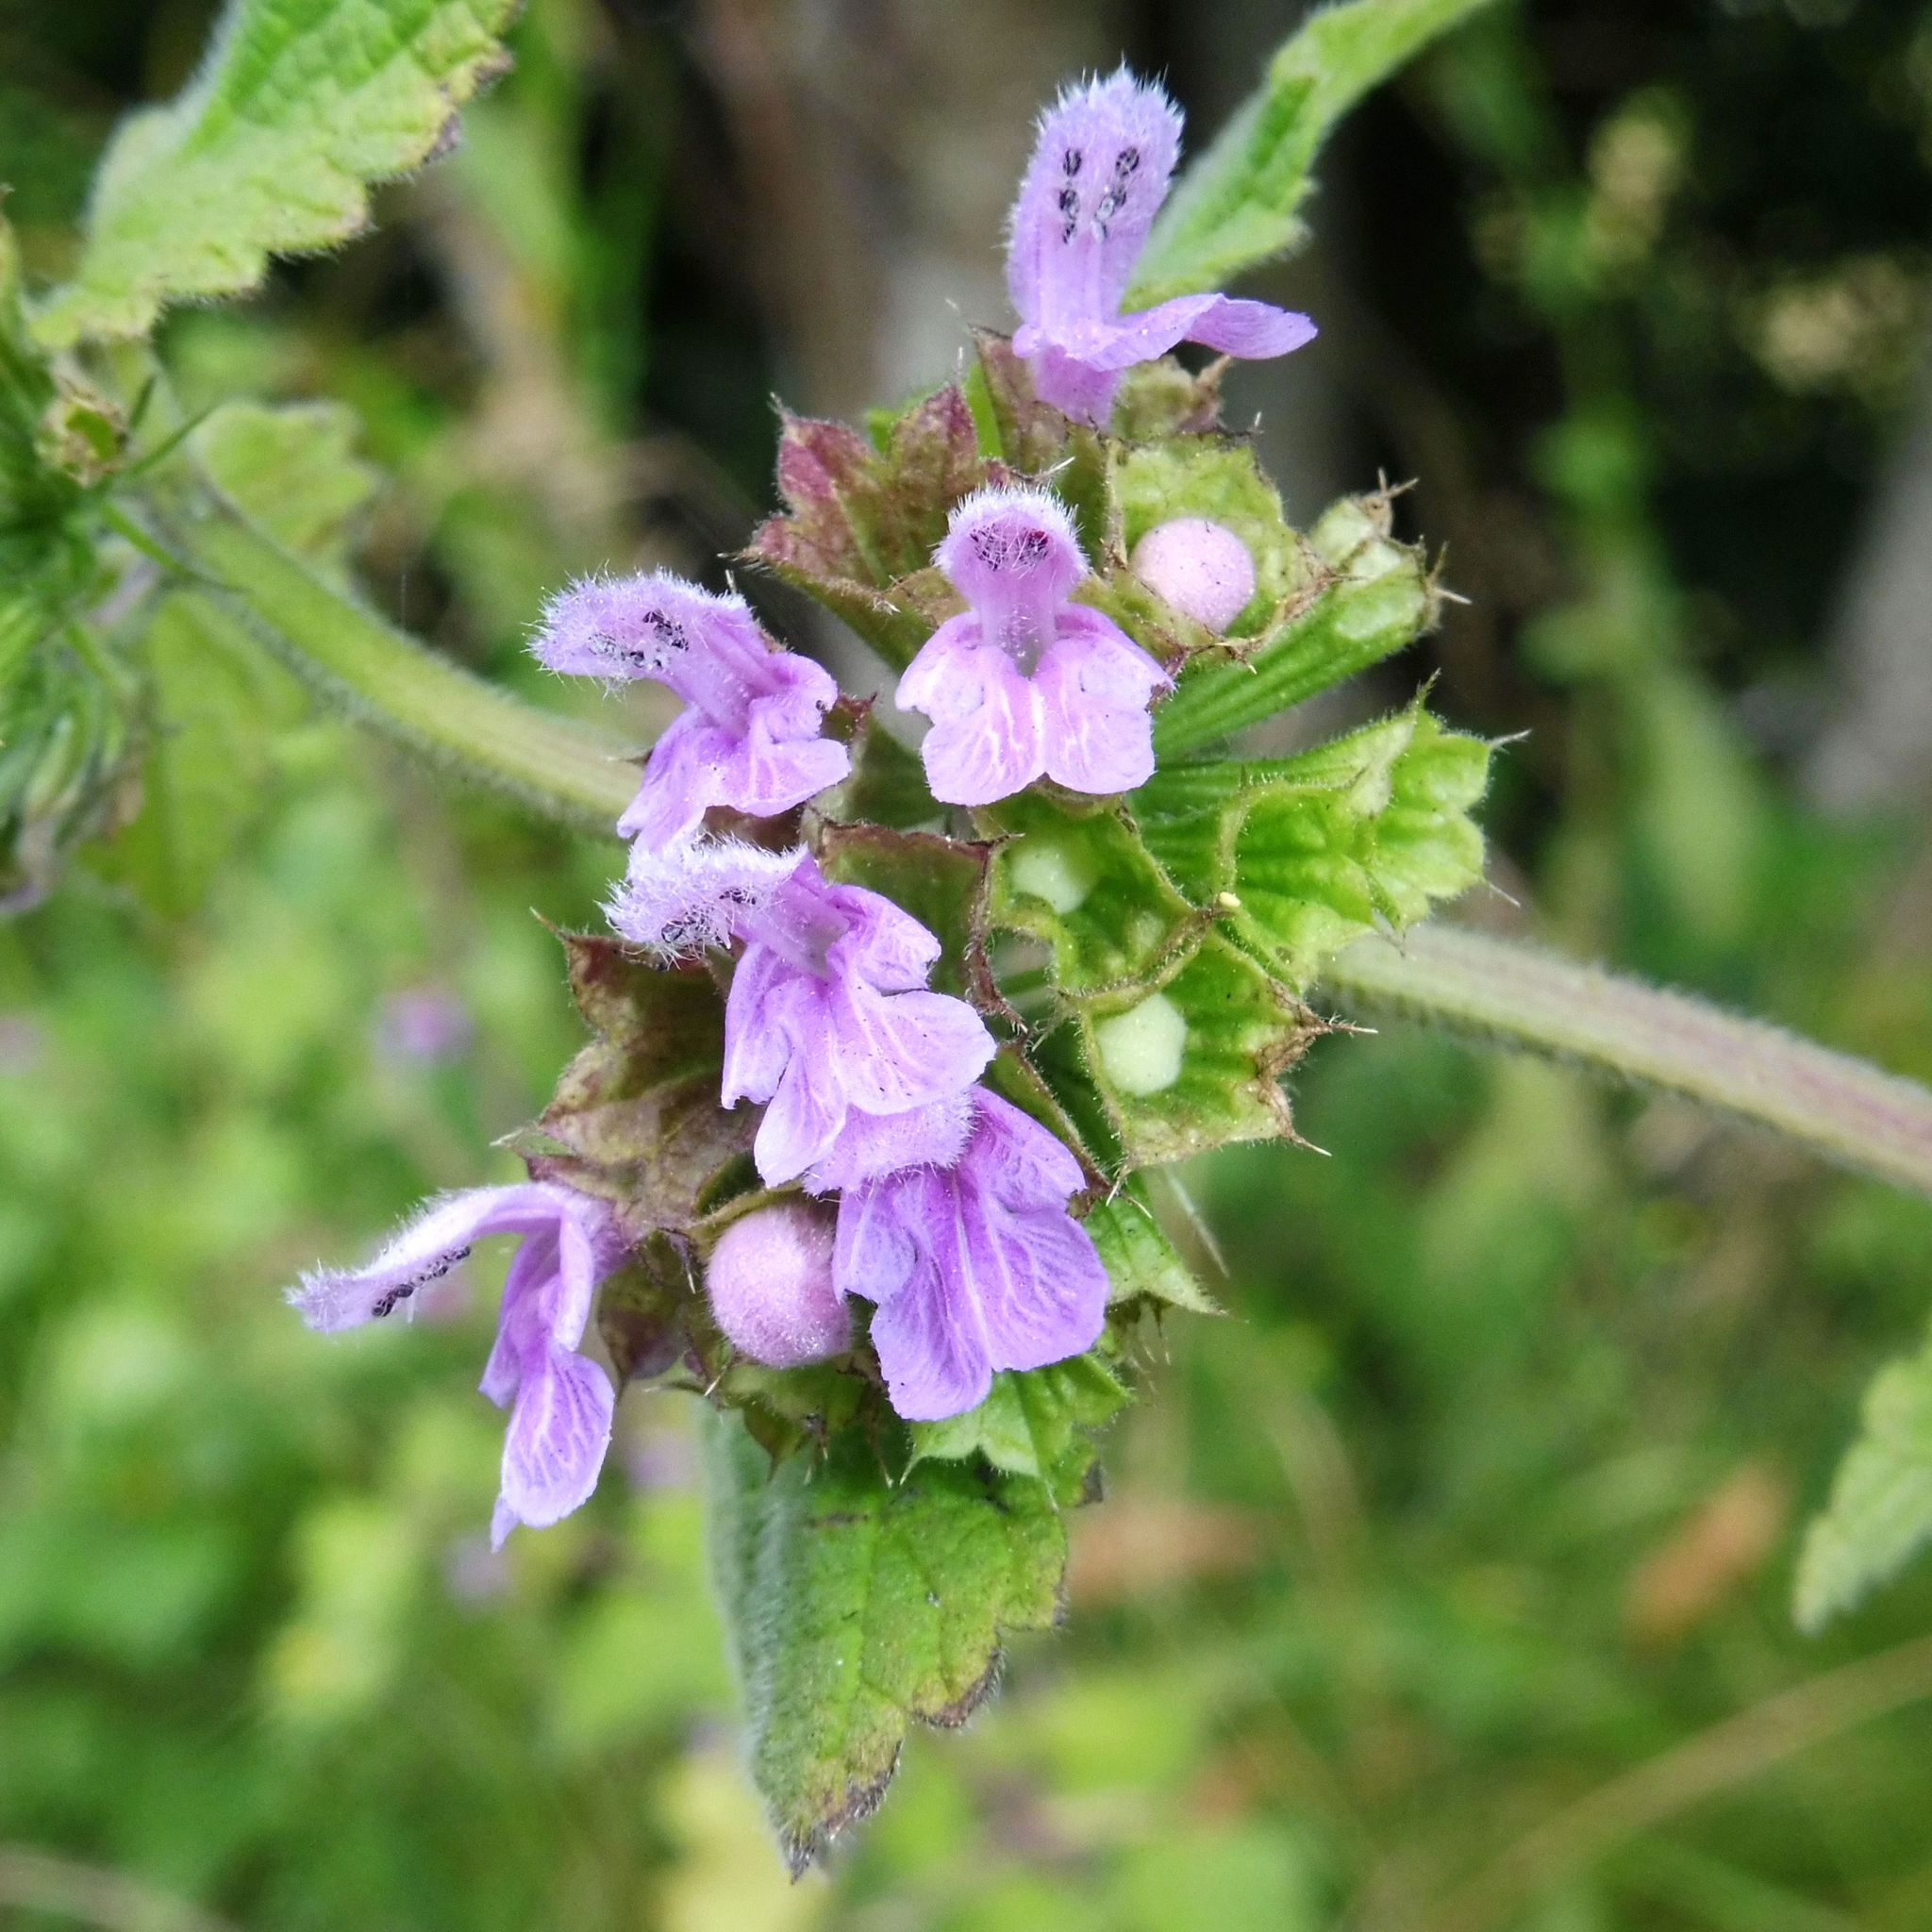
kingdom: Plantae
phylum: Tracheophyta
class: Magnoliopsida
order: Lamiales
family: Lamiaceae
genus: Ballota
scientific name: Ballota nigra
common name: Black horehound
